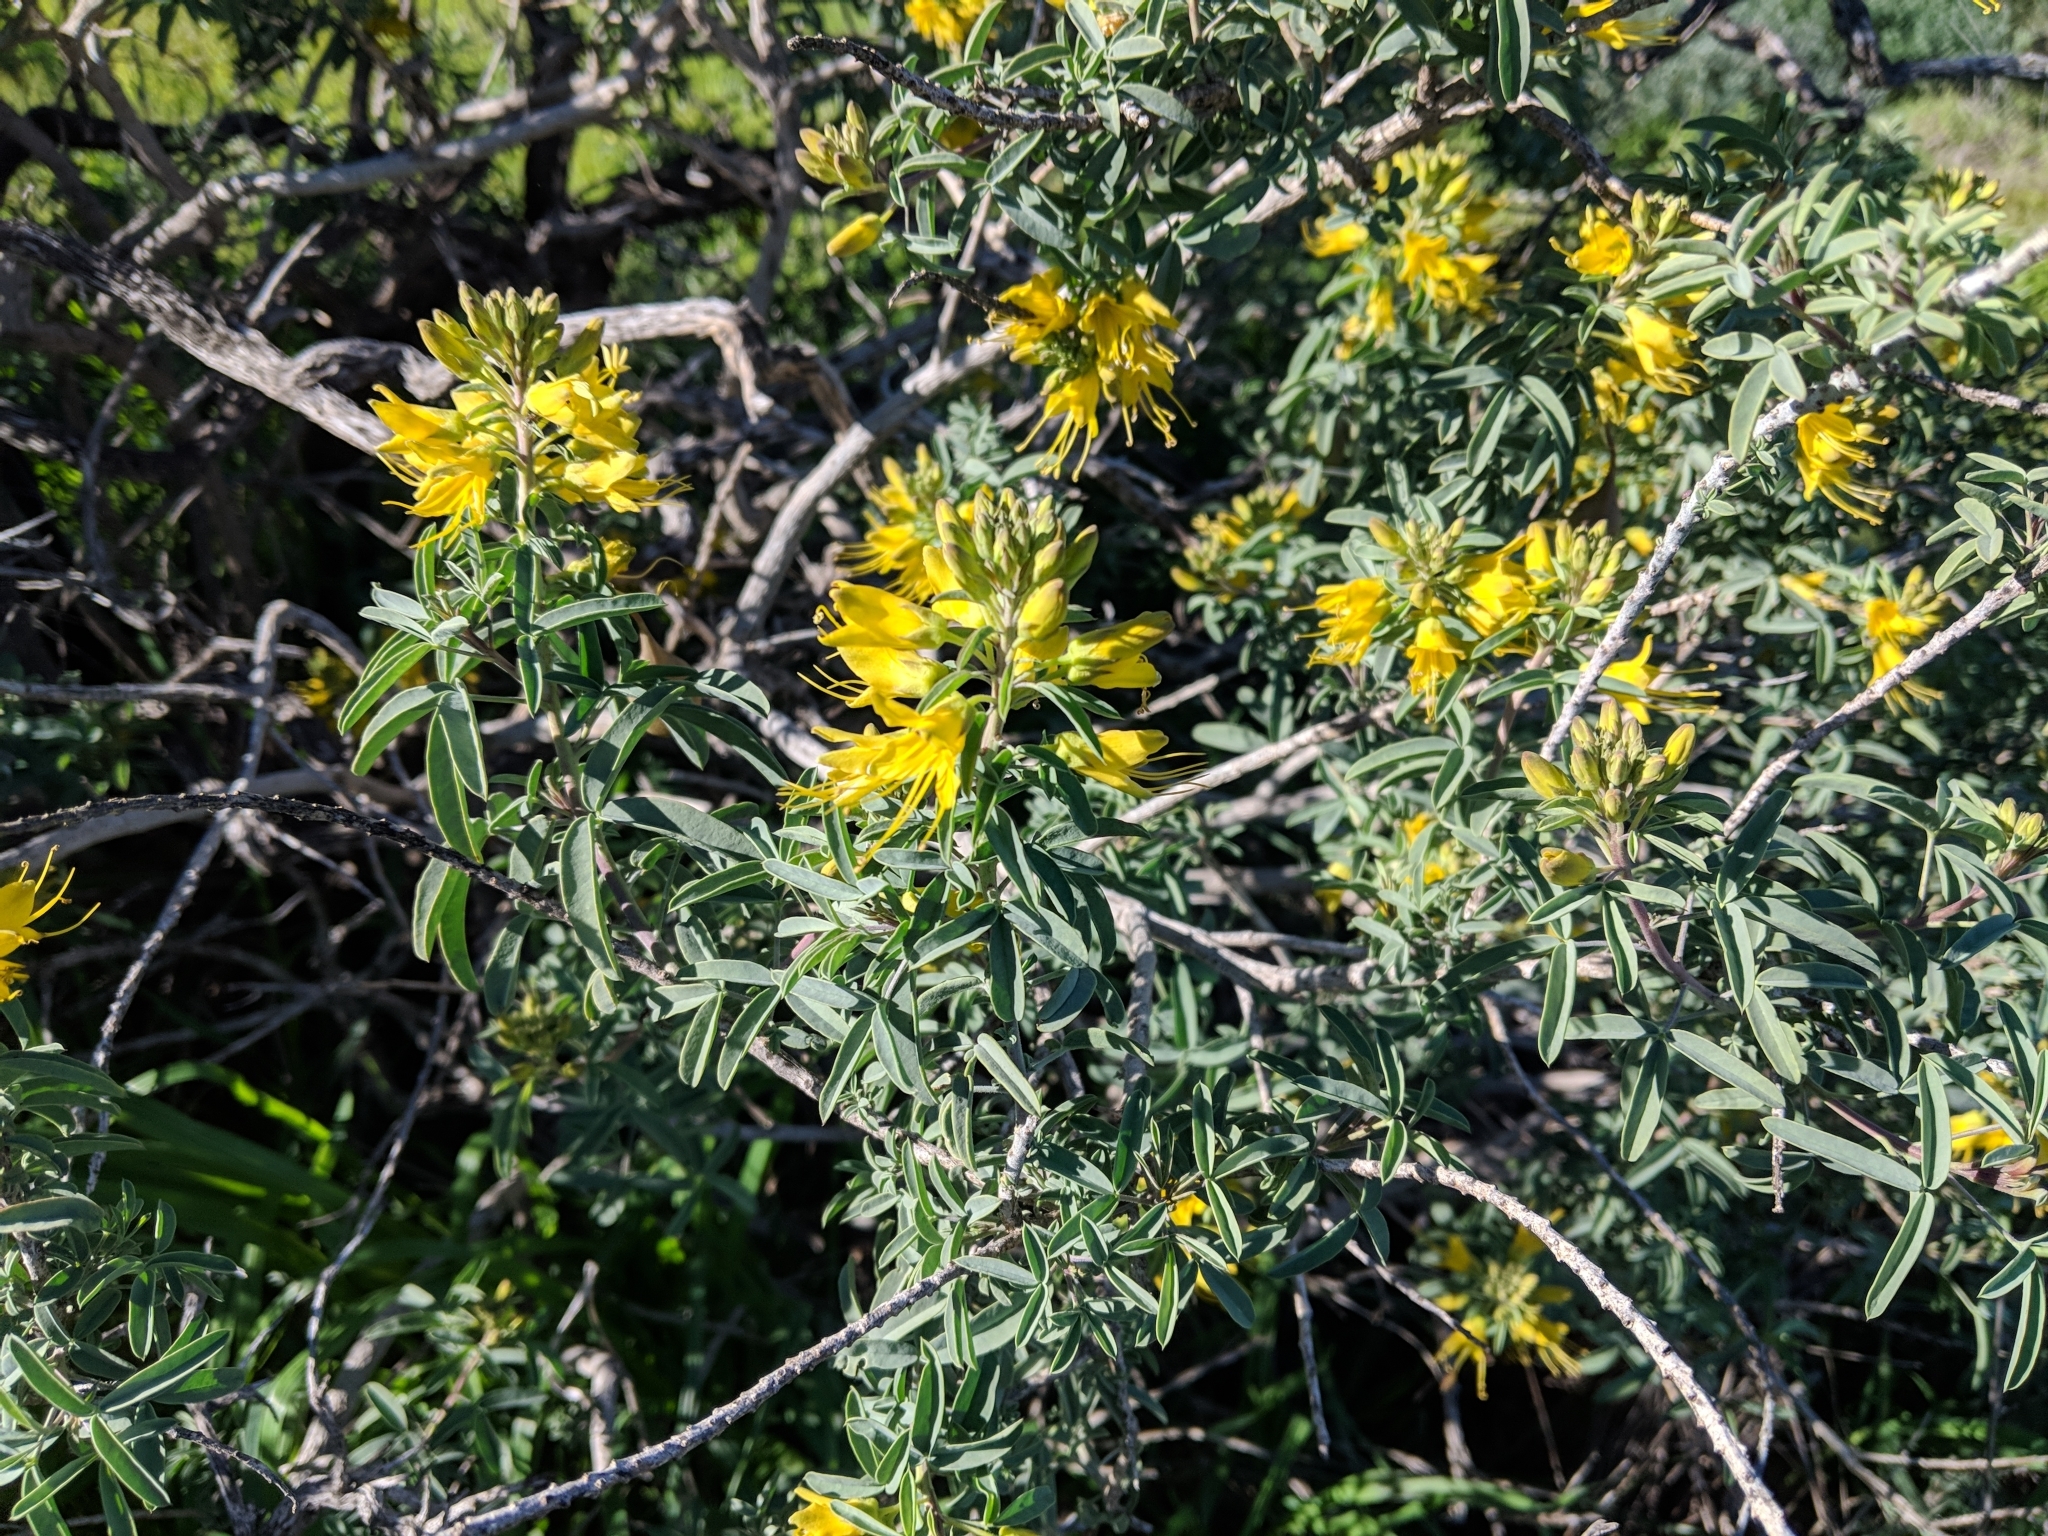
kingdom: Plantae
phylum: Tracheophyta
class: Magnoliopsida
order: Brassicales
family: Cleomaceae
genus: Cleomella
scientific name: Cleomella arborea
